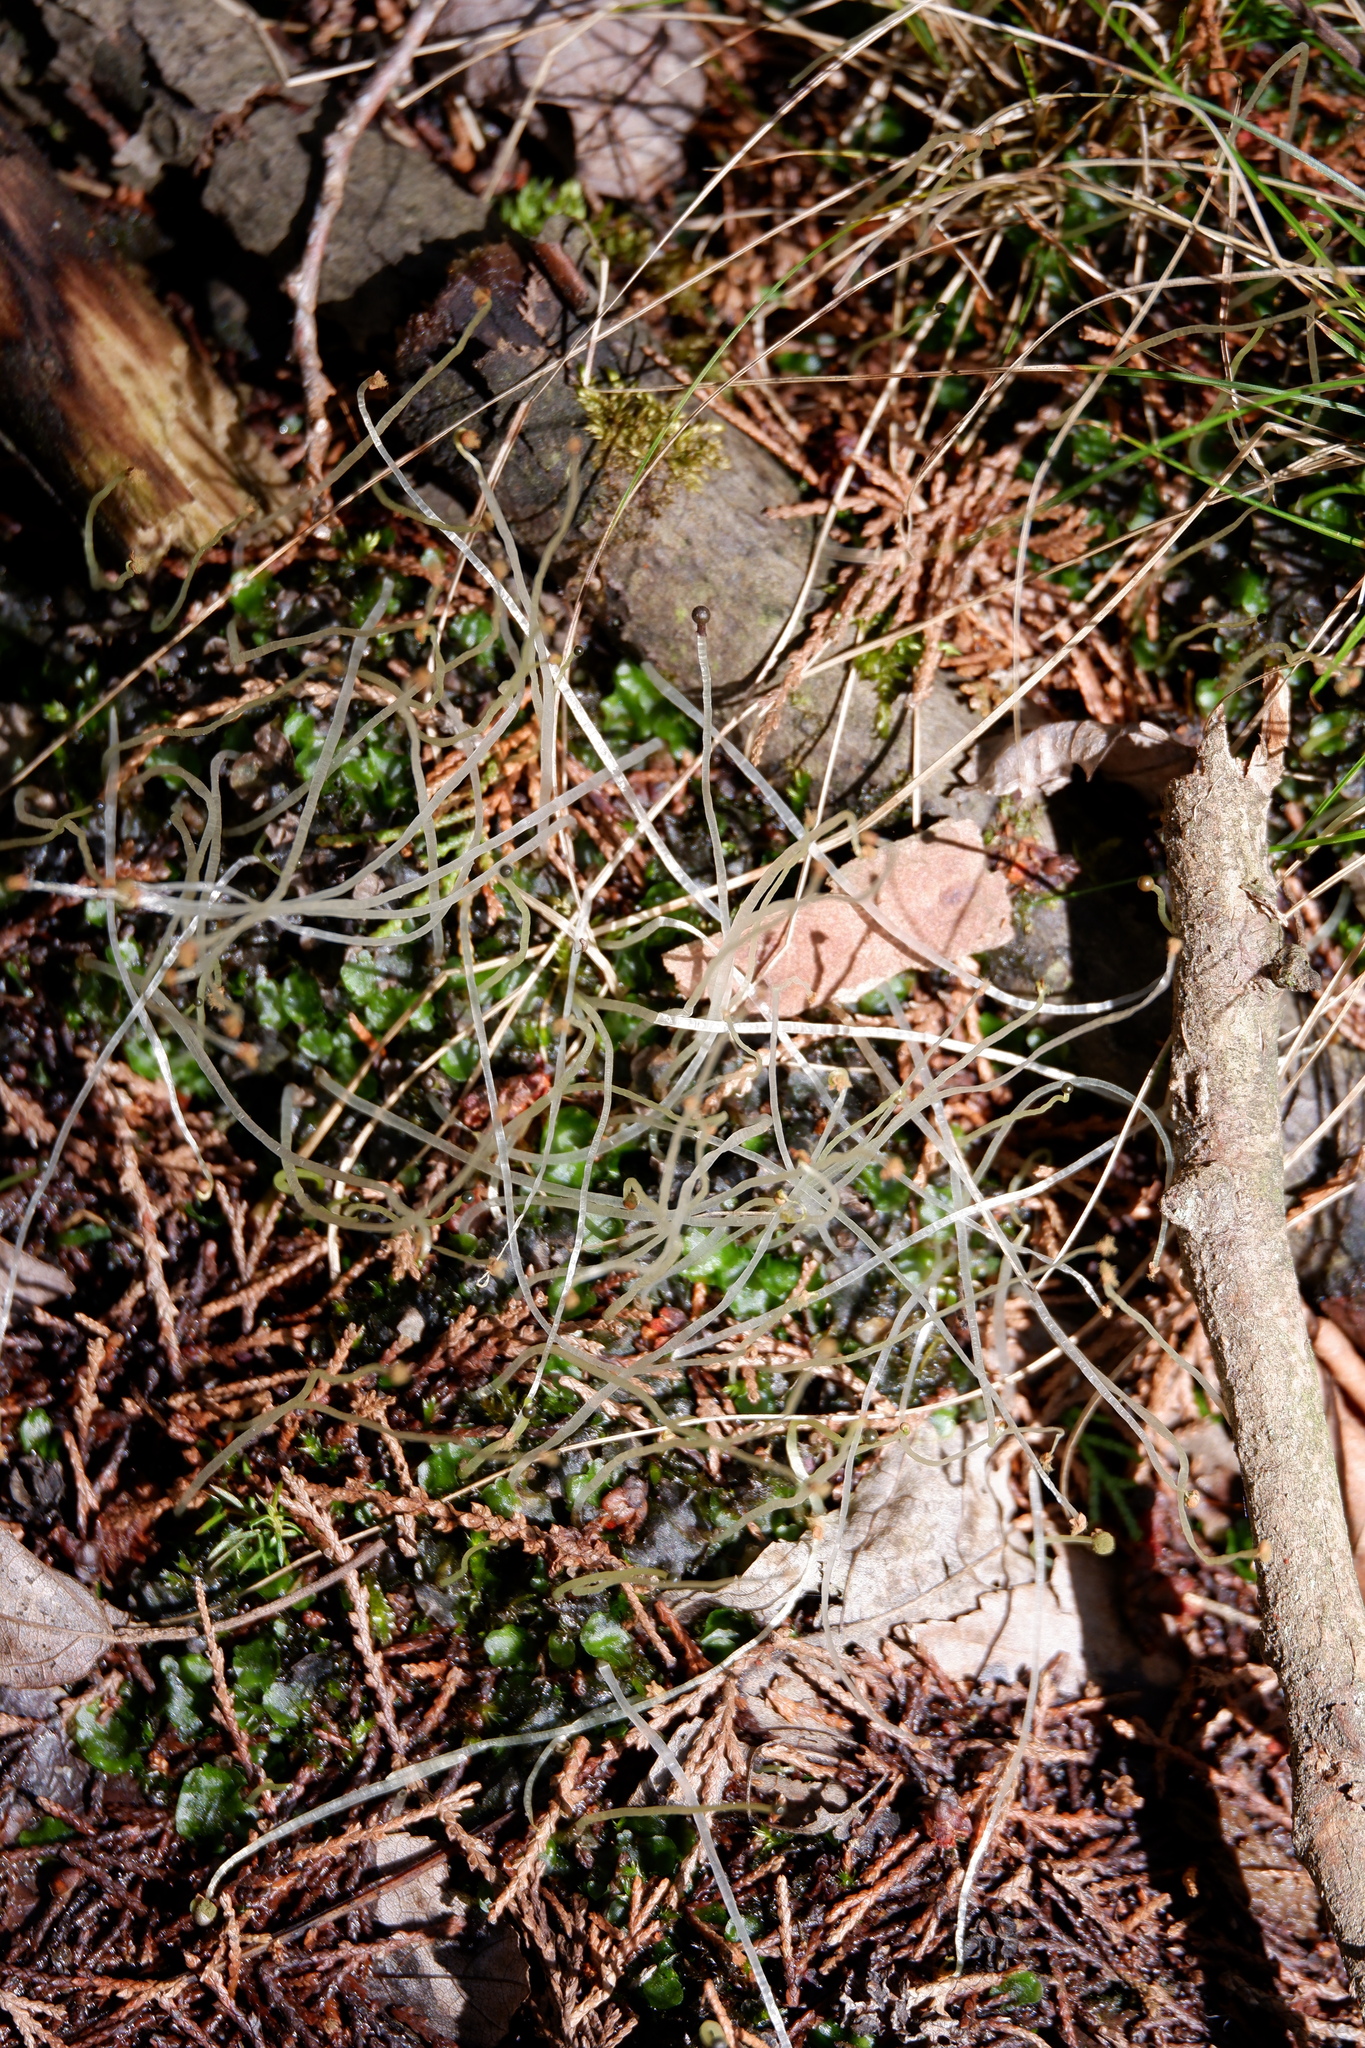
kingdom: Plantae
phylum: Marchantiophyta
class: Jungermanniopsida
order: Pelliales
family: Pelliaceae
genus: Pellia
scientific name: Pellia epiphylla
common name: Common pellia
